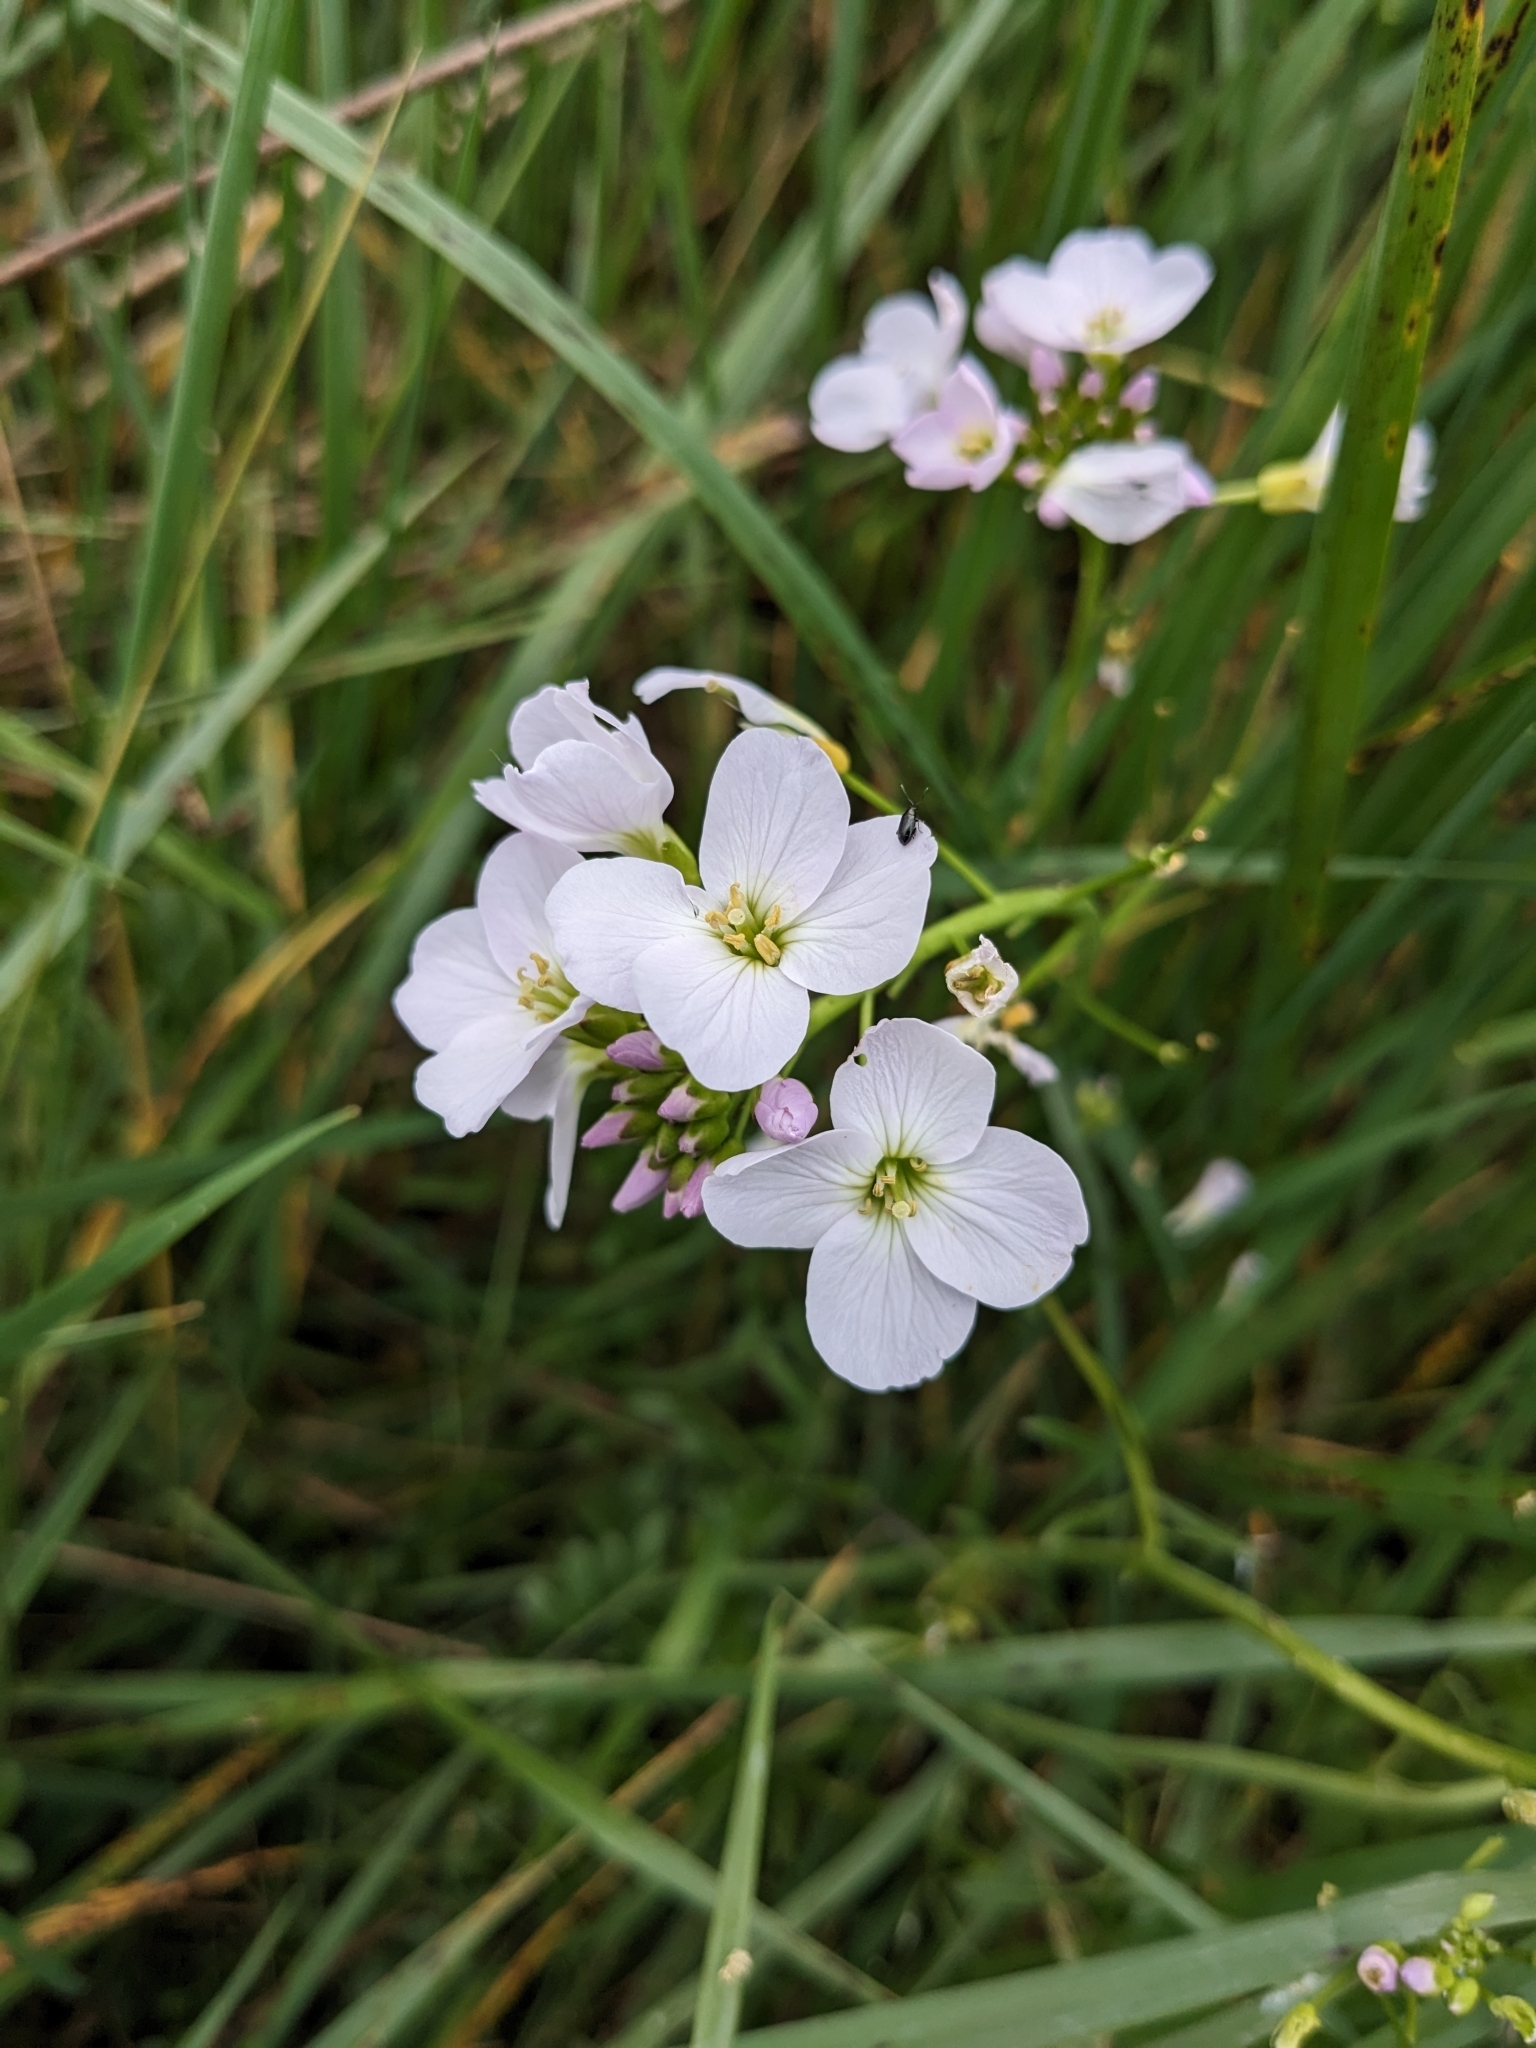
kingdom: Plantae
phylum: Tracheophyta
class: Magnoliopsida
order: Brassicales
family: Brassicaceae
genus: Cardamine
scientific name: Cardamine pratensis
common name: Cuckoo flower
